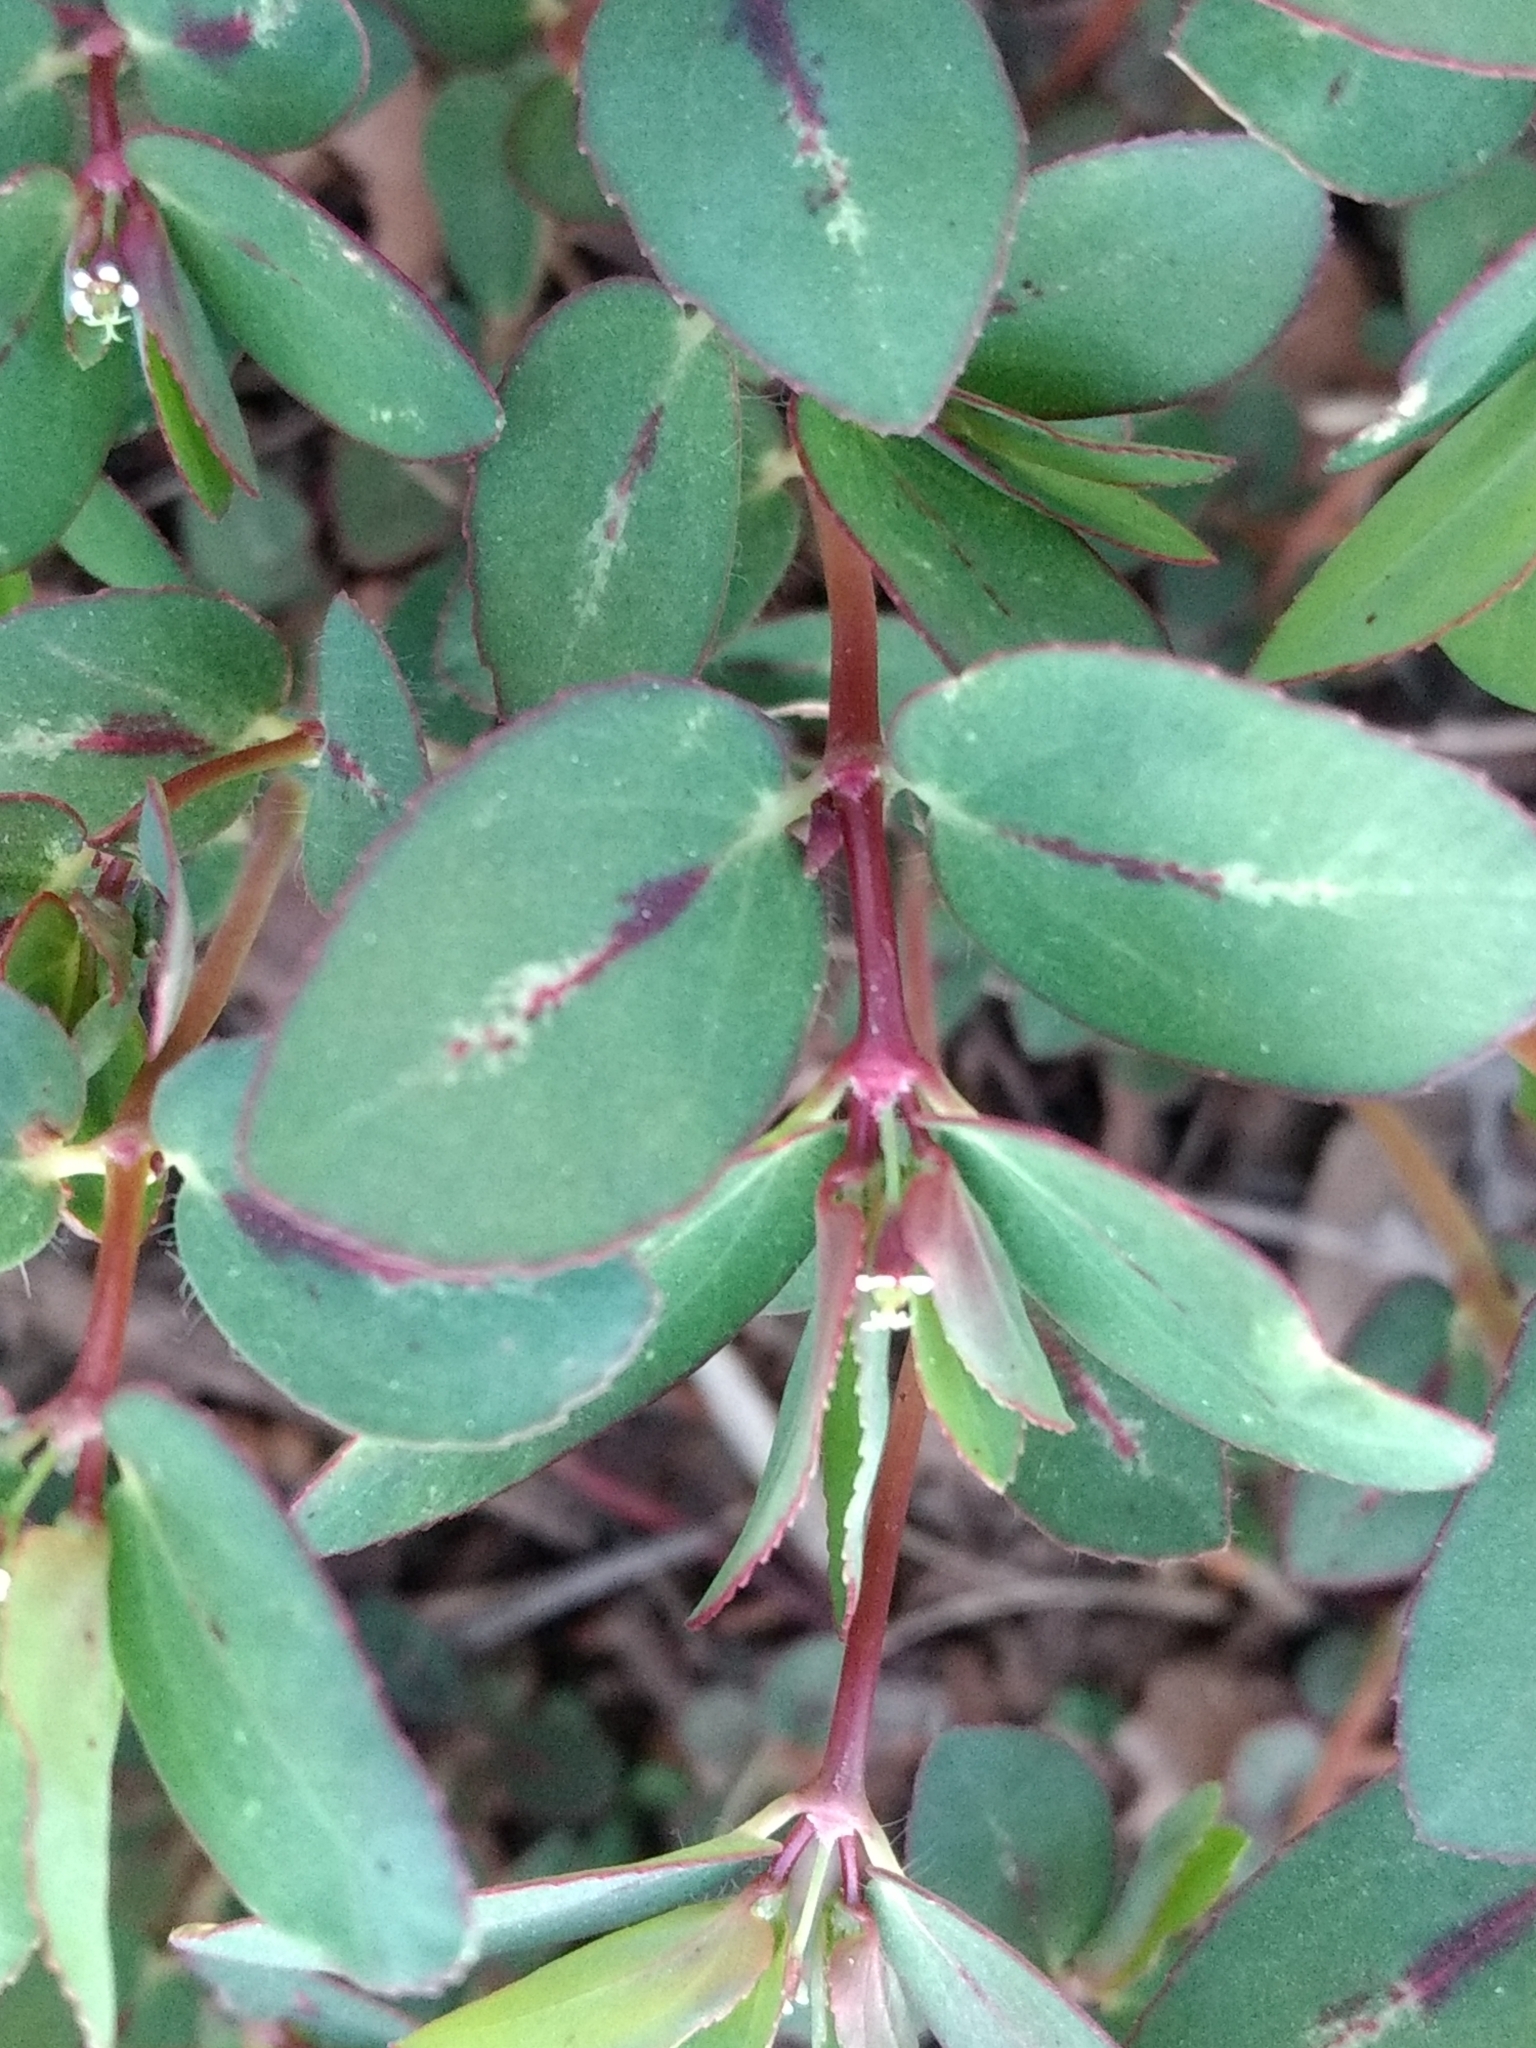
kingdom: Plantae
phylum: Tracheophyta
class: Magnoliopsida
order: Malpighiales
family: Euphorbiaceae
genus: Euphorbia
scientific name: Euphorbia hyssopifolia
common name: Hyssopleaf sandmat
